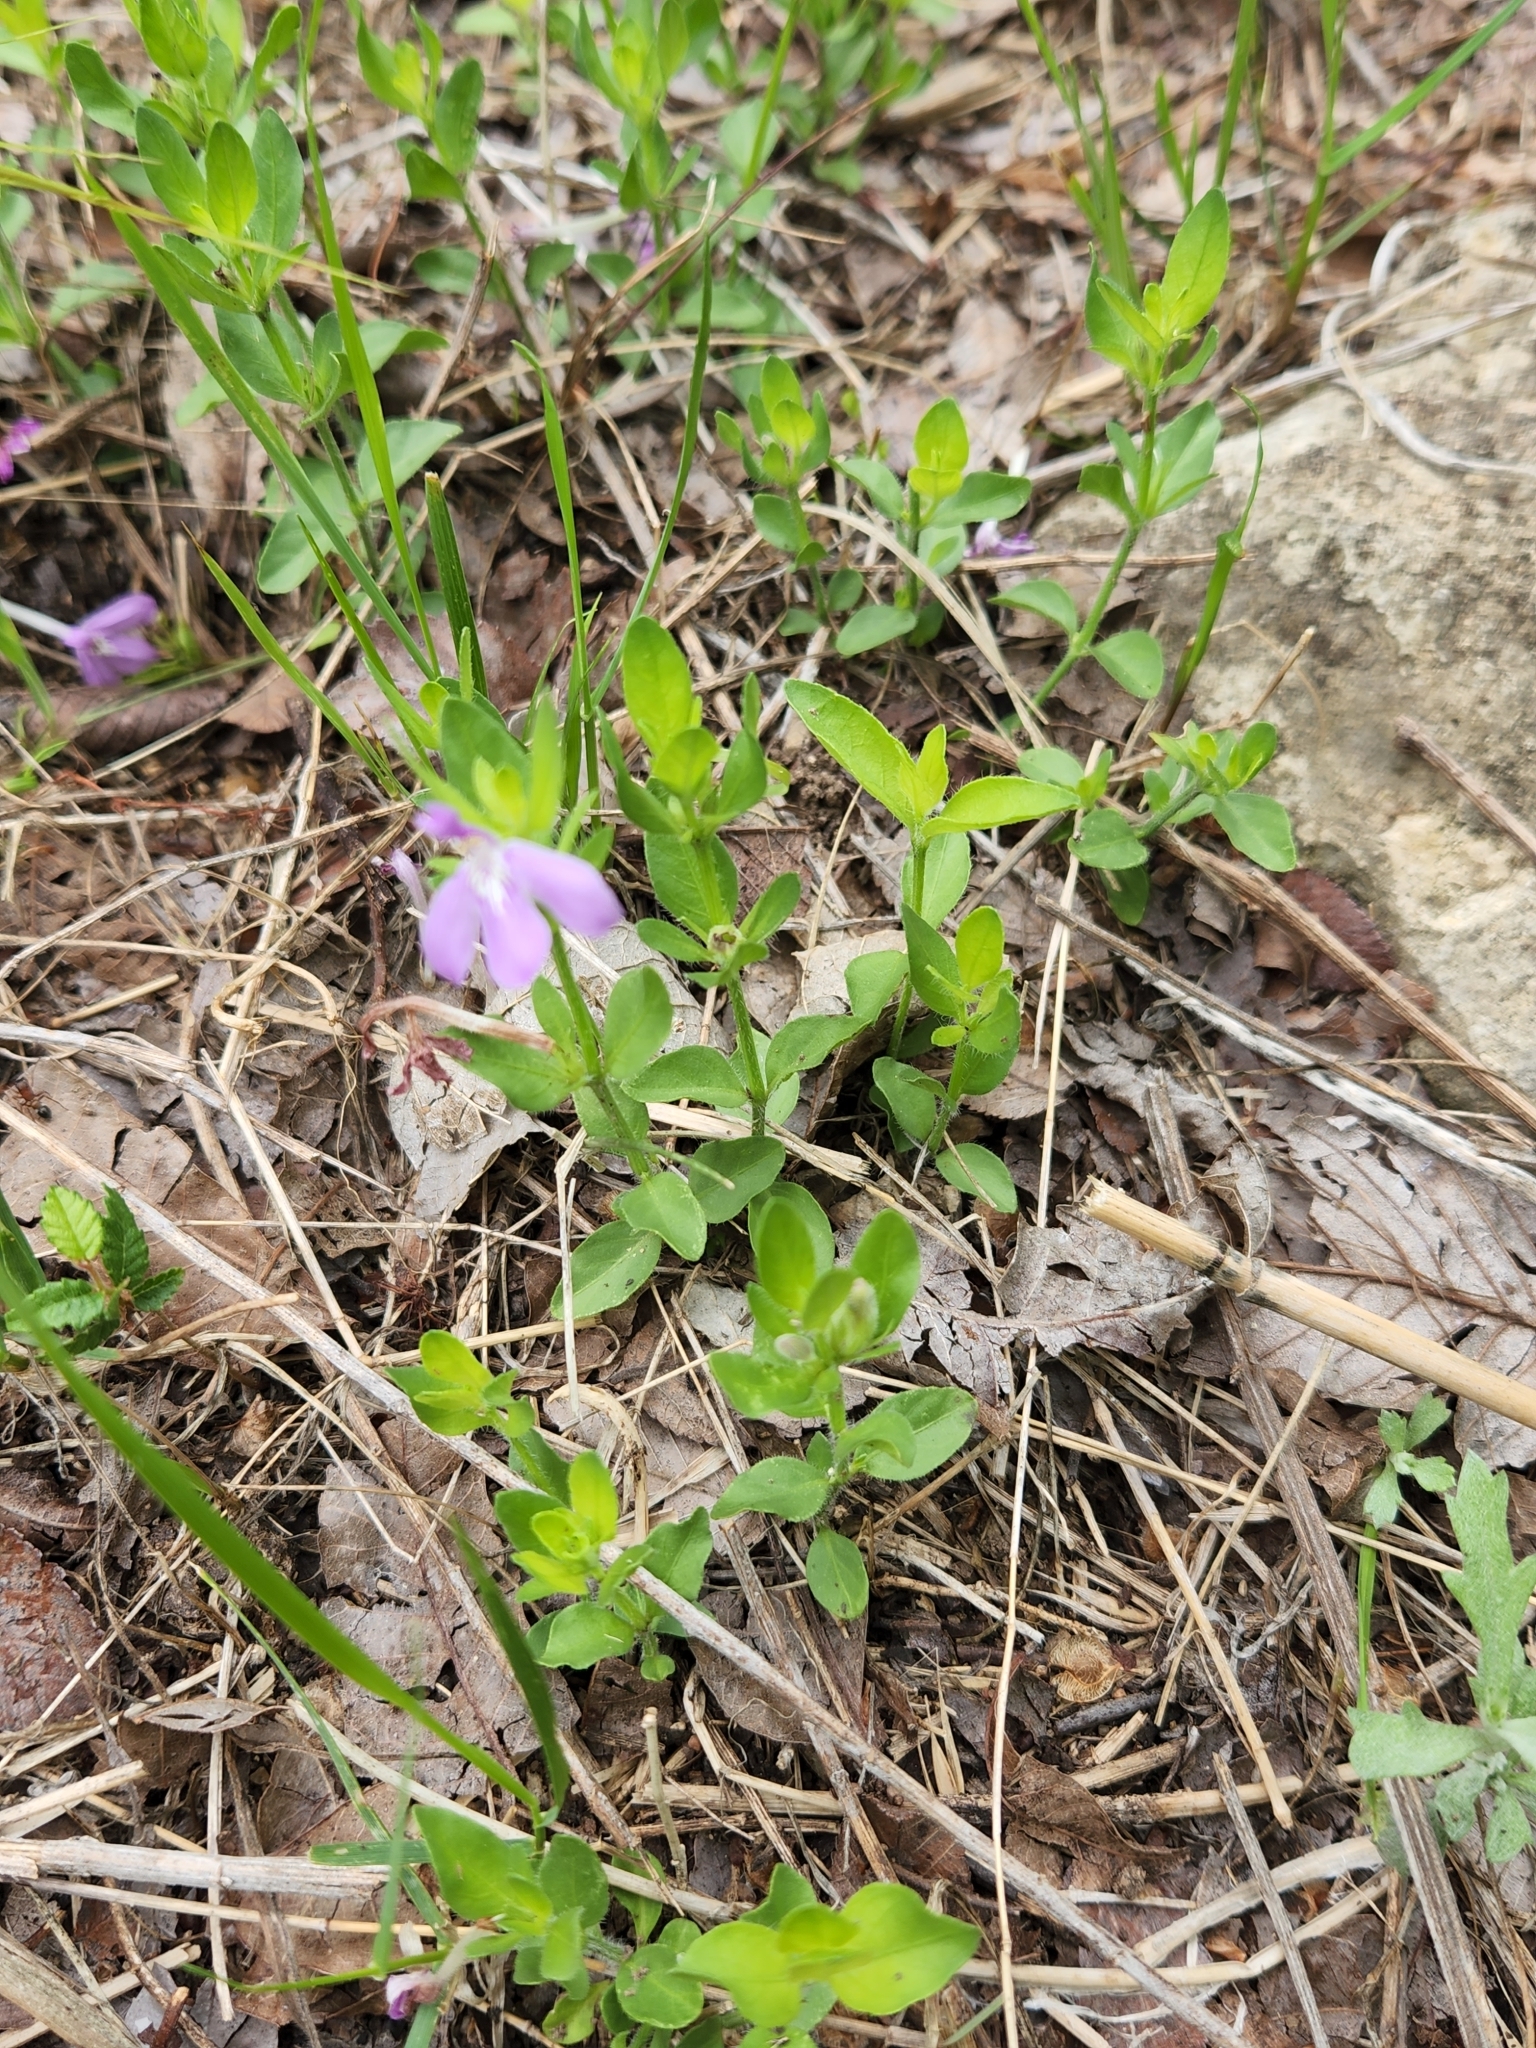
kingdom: Plantae
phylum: Tracheophyta
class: Magnoliopsida
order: Lamiales
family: Acanthaceae
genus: Justicia
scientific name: Justicia pilosella
